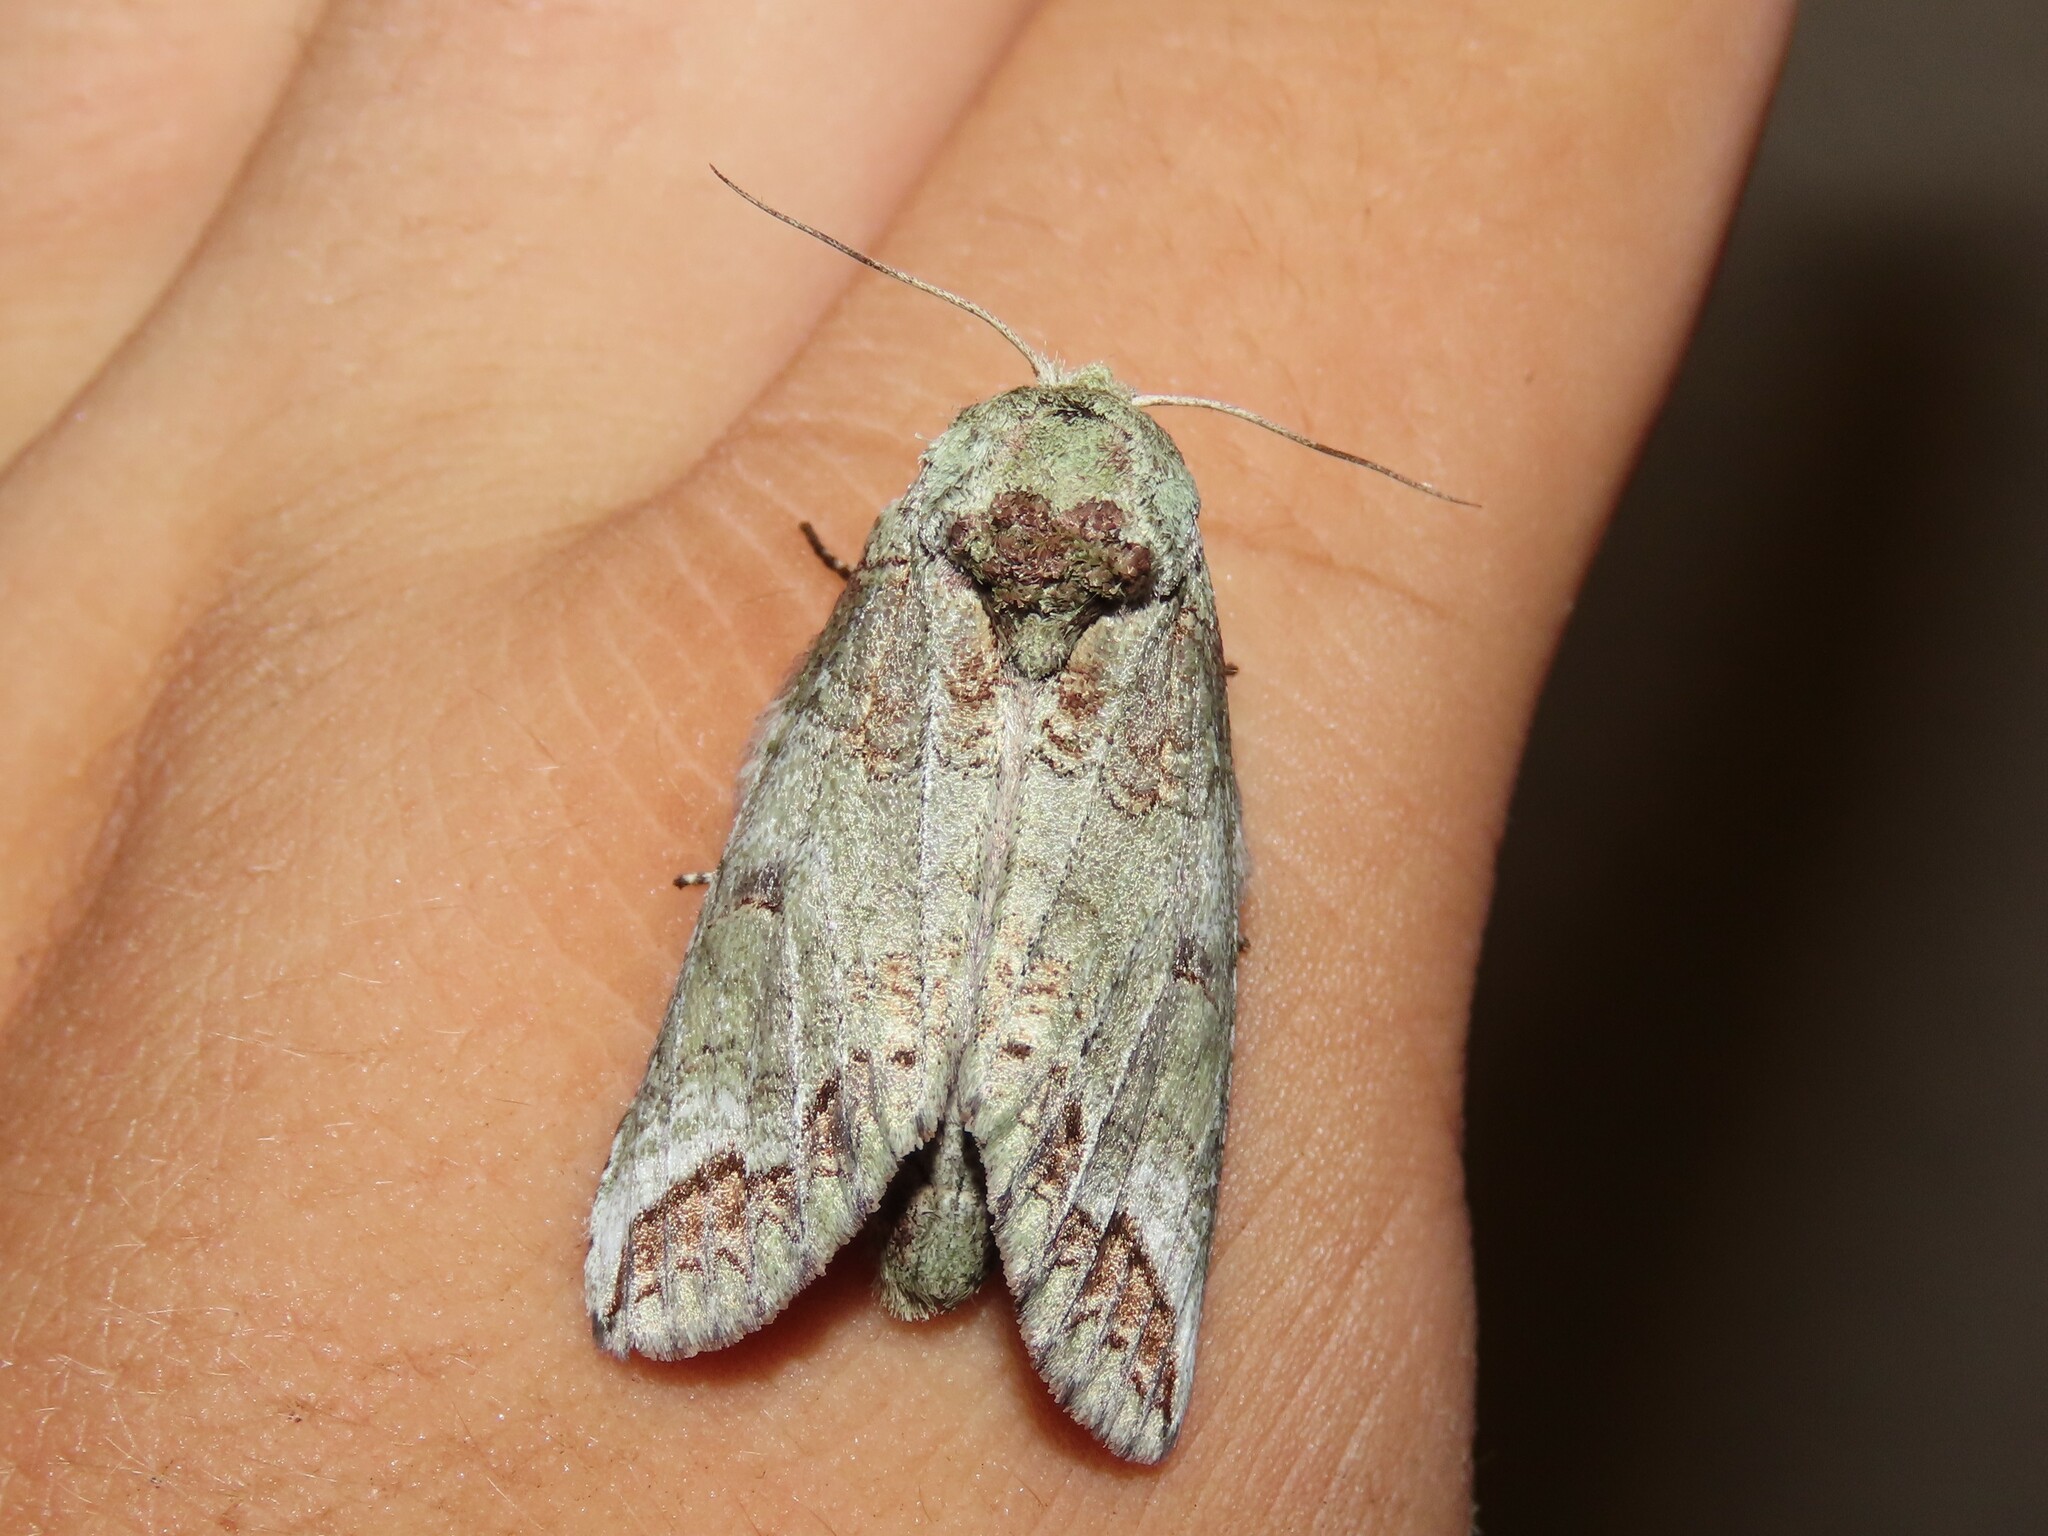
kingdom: Animalia
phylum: Arthropoda
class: Insecta
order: Lepidoptera
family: Notodontidae
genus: Heterocampa
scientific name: Heterocampa astarte
